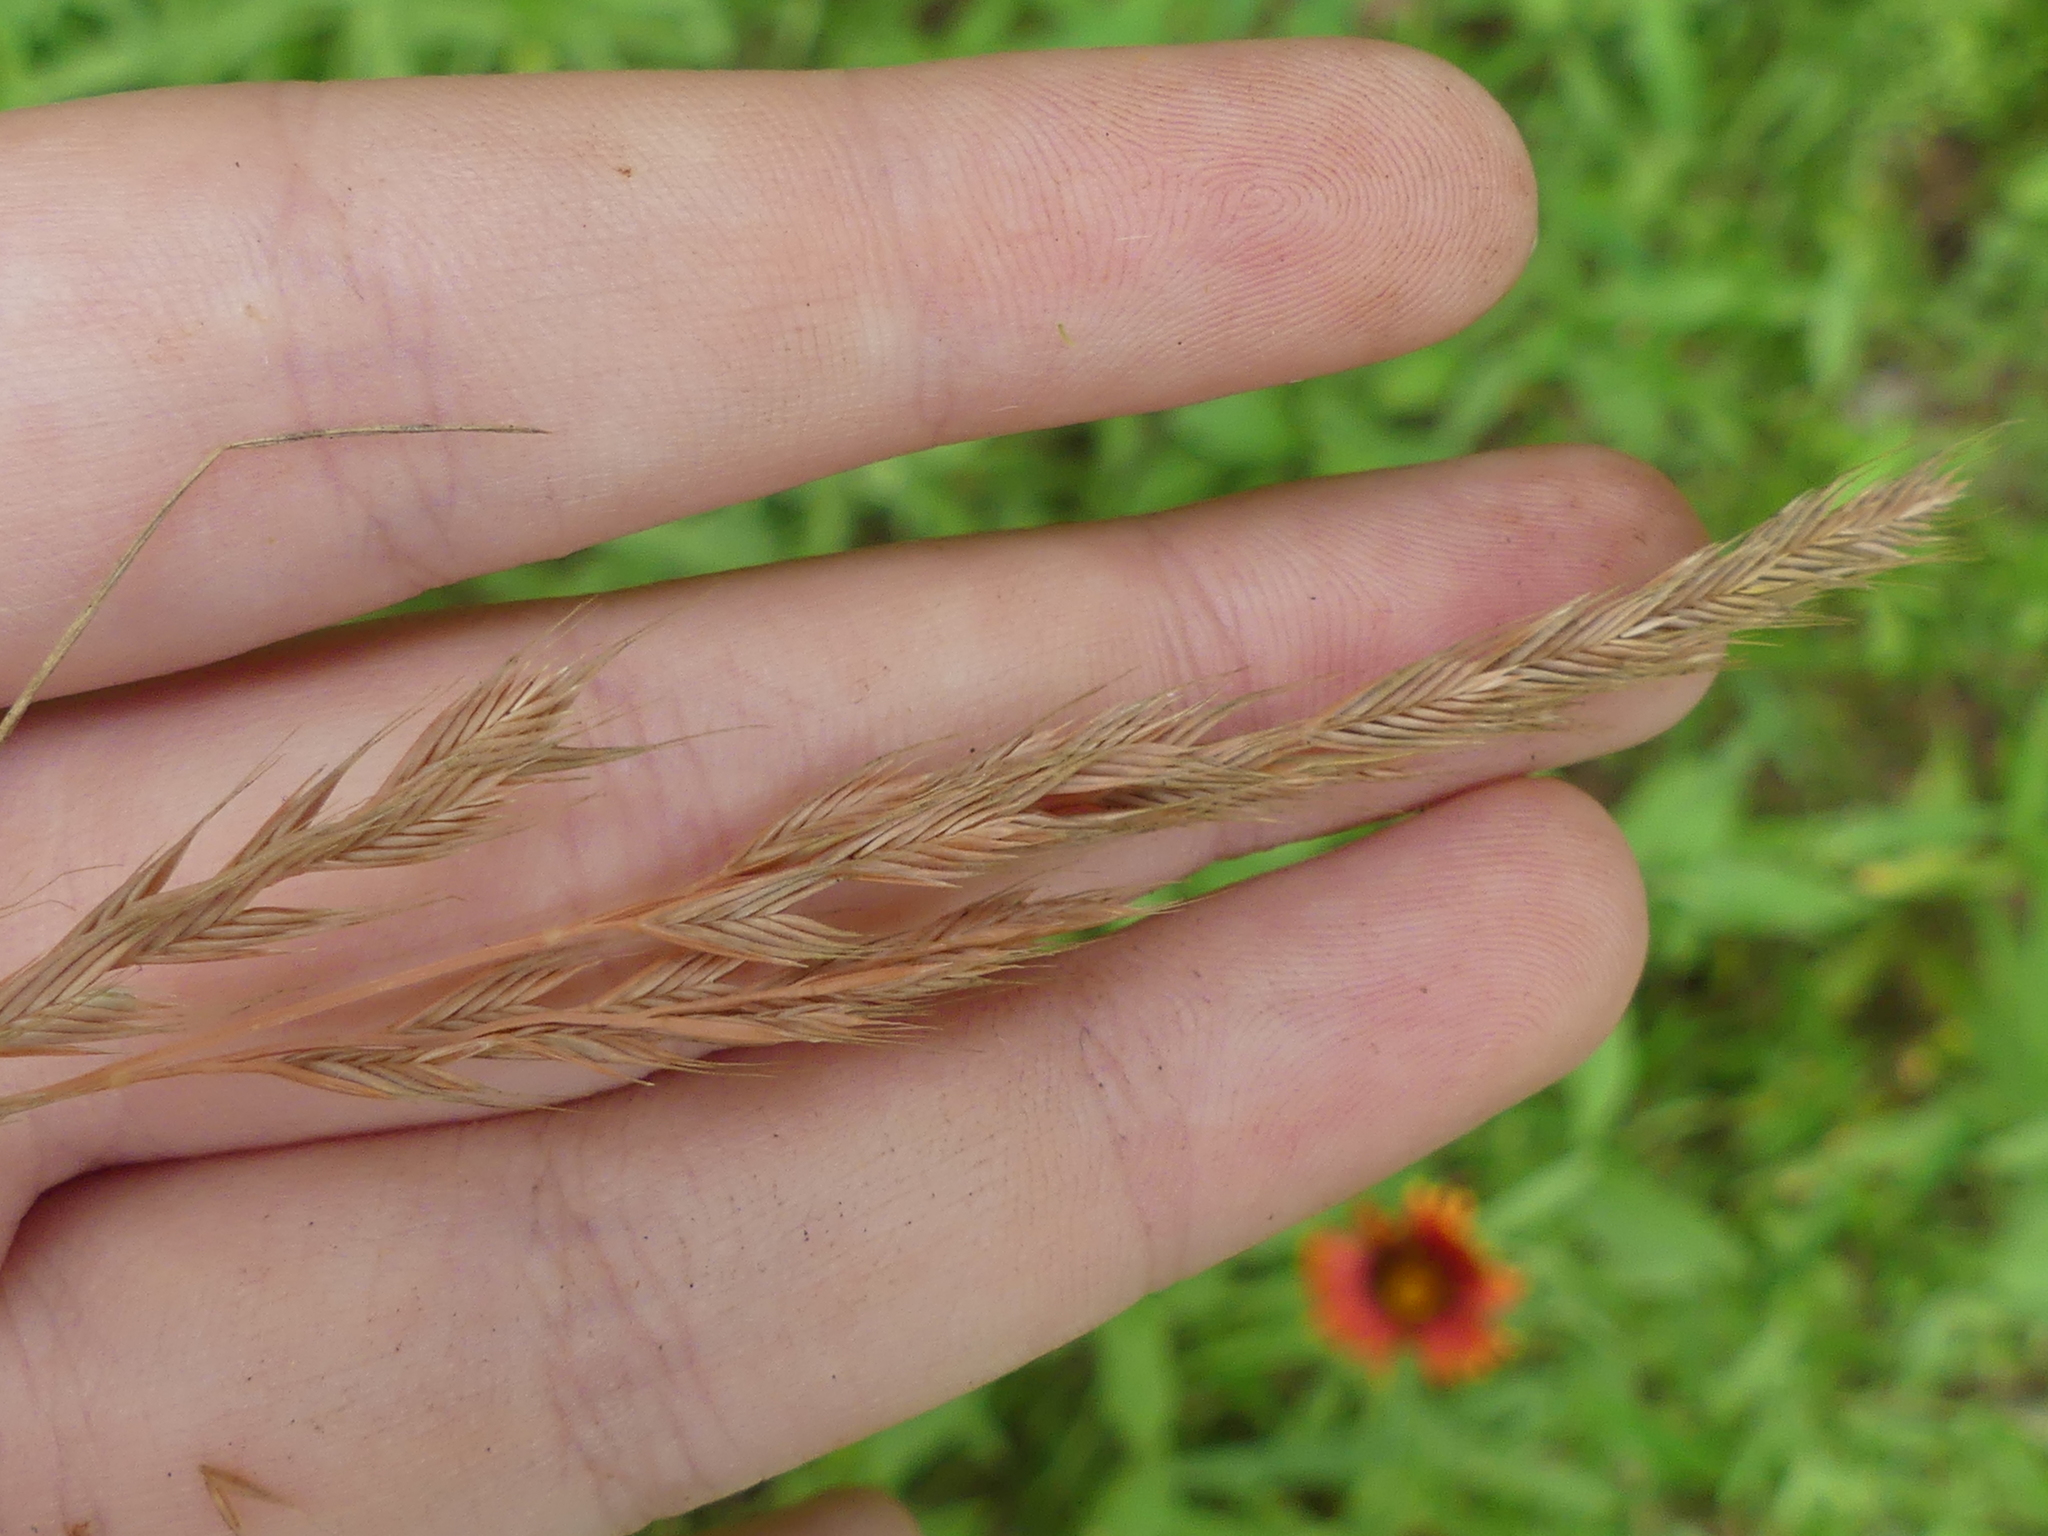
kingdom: Plantae
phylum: Tracheophyta
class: Liliopsida
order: Poales
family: Poaceae
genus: Festuca
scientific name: Festuca octoflora
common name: Sixweeks grass
